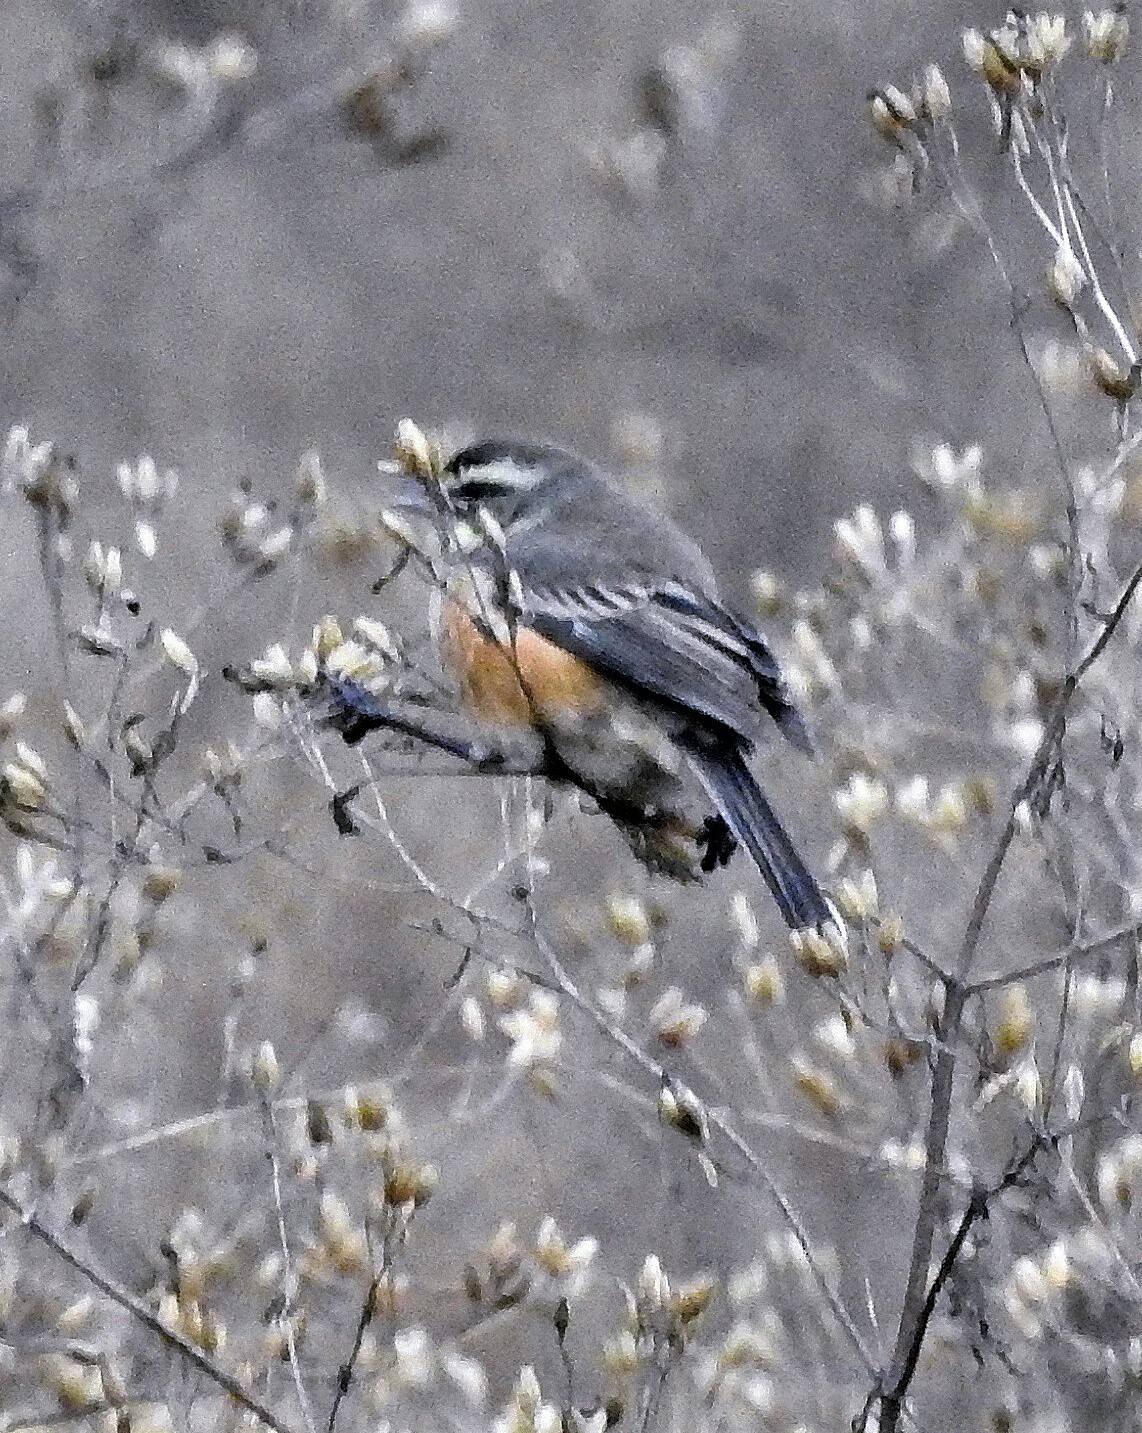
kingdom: Animalia
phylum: Chordata
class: Aves
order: Passeriformes
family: Thraupidae
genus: Poospizopsis
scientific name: Poospizopsis hypocondria
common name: Rufous-sided warbling-finch
